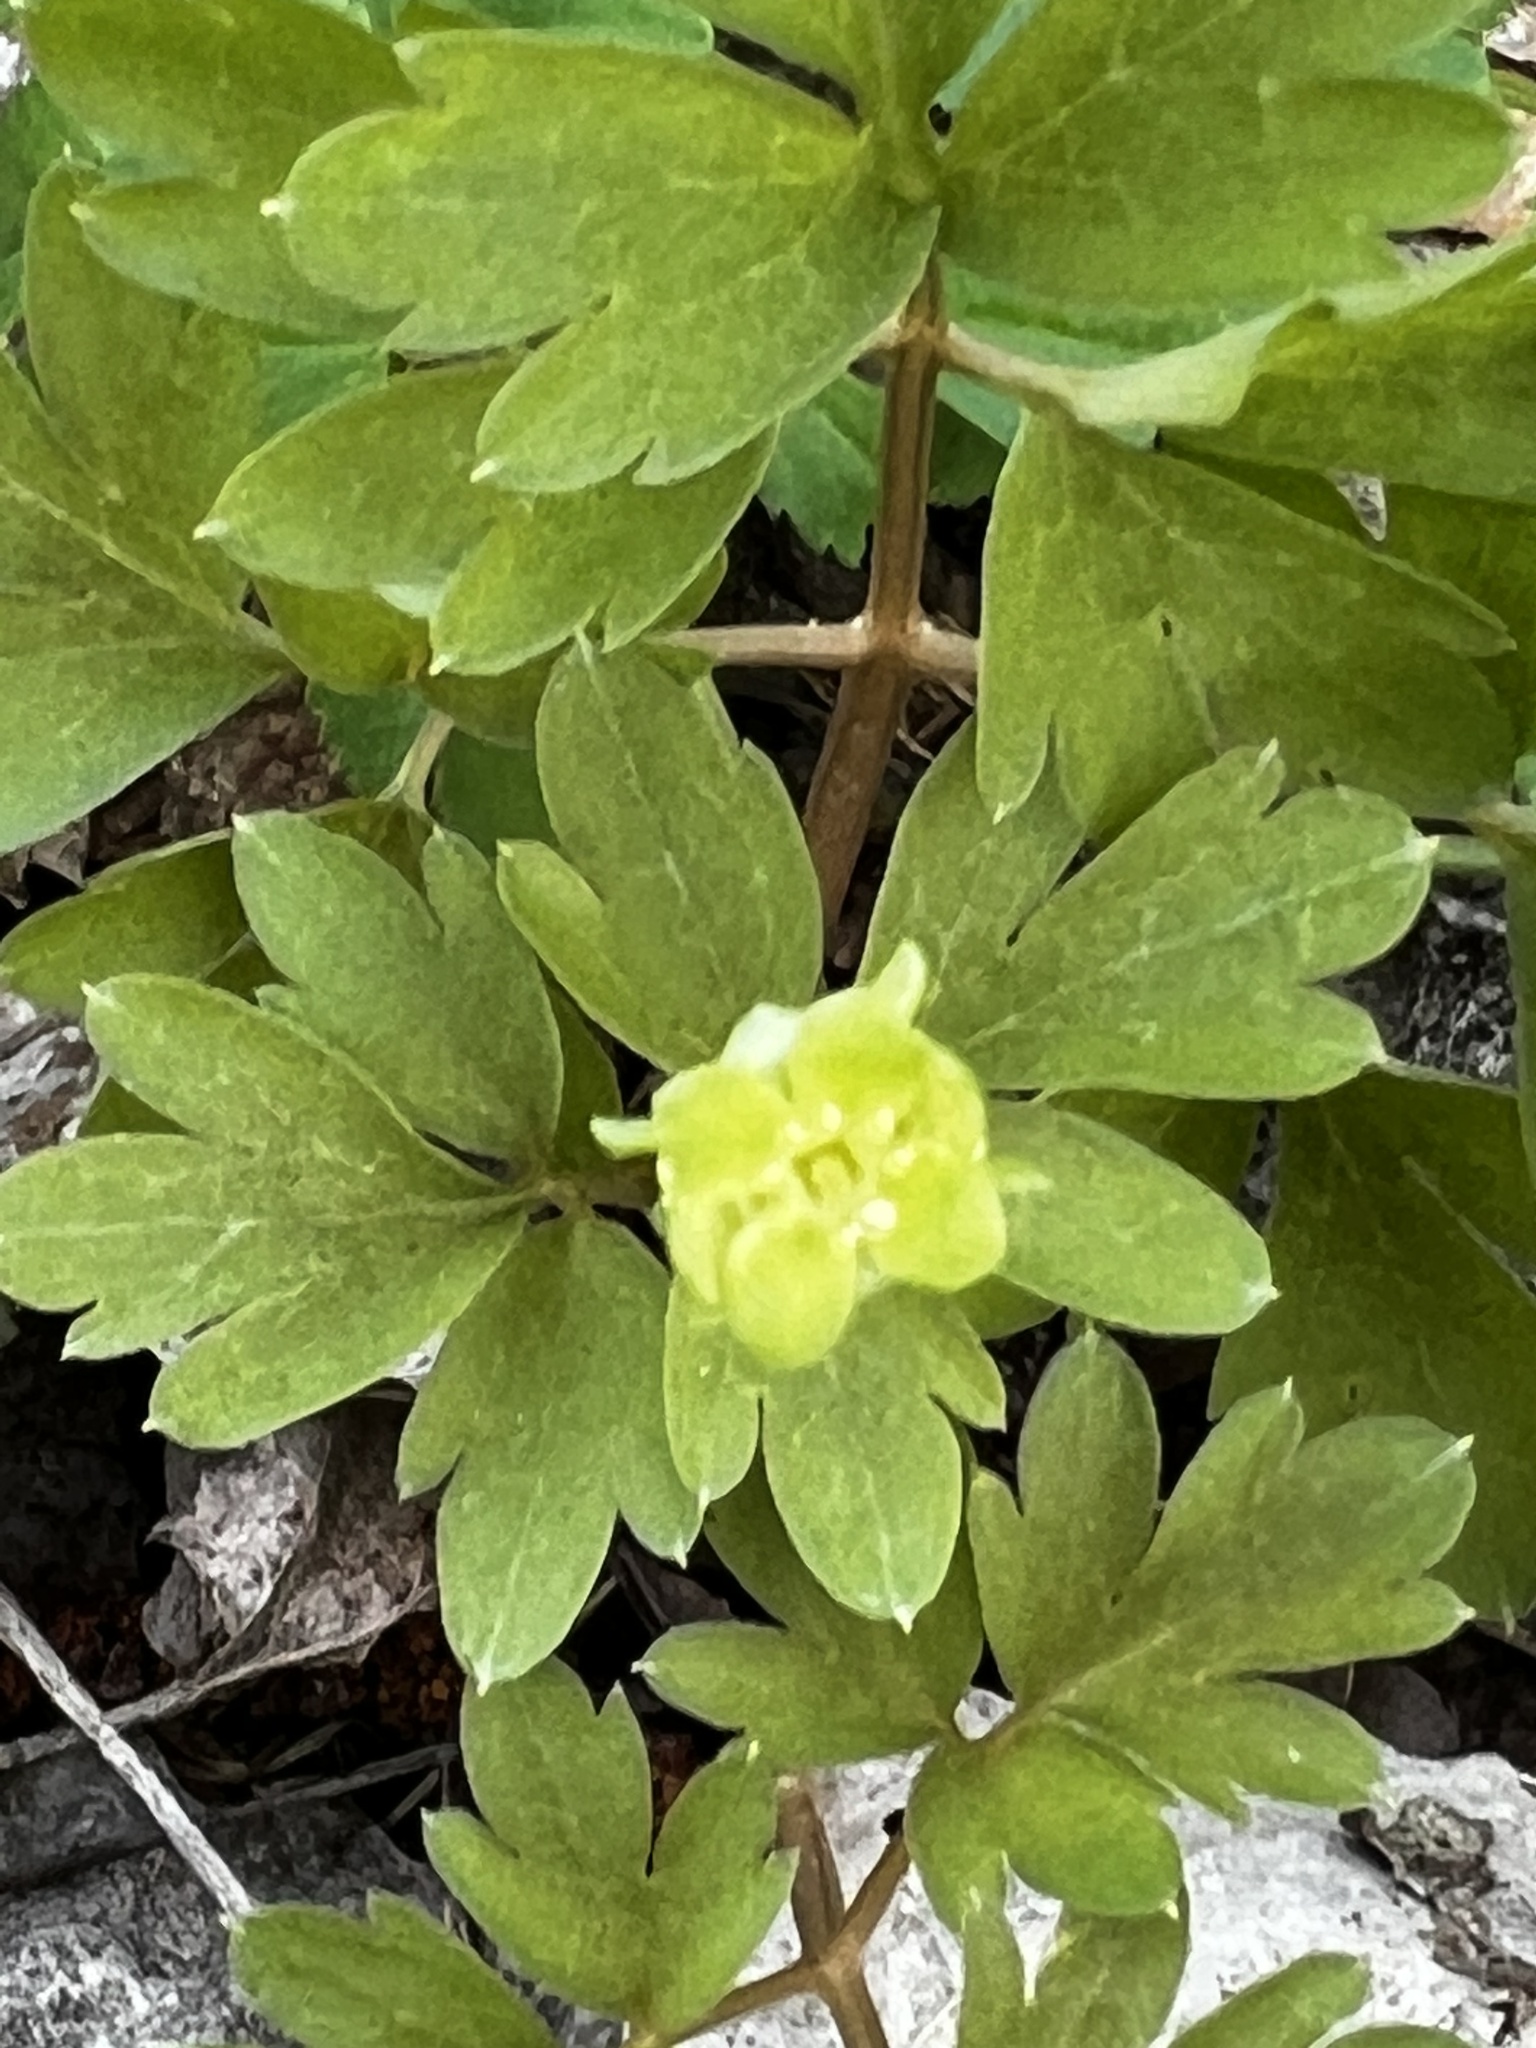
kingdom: Plantae
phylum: Tracheophyta
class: Magnoliopsida
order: Dipsacales
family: Viburnaceae
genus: Adoxa
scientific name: Adoxa moschatellina
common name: Moschatel
